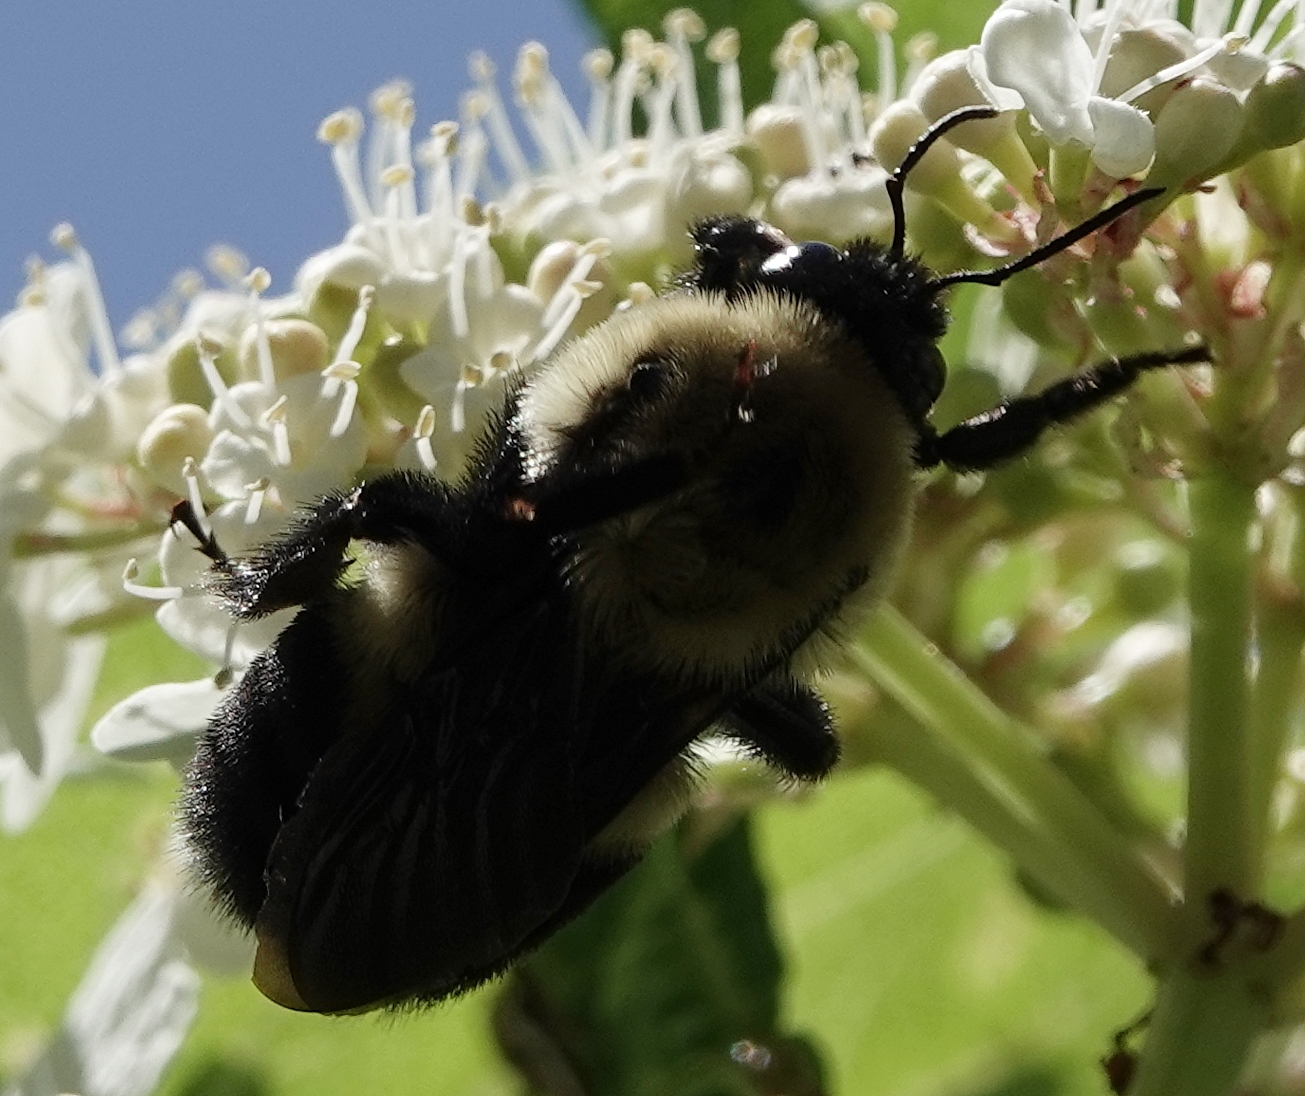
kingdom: Animalia
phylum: Arthropoda
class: Insecta
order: Hymenoptera
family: Apidae
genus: Bombus
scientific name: Bombus griseocollis
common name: Brown-belted bumble bee
